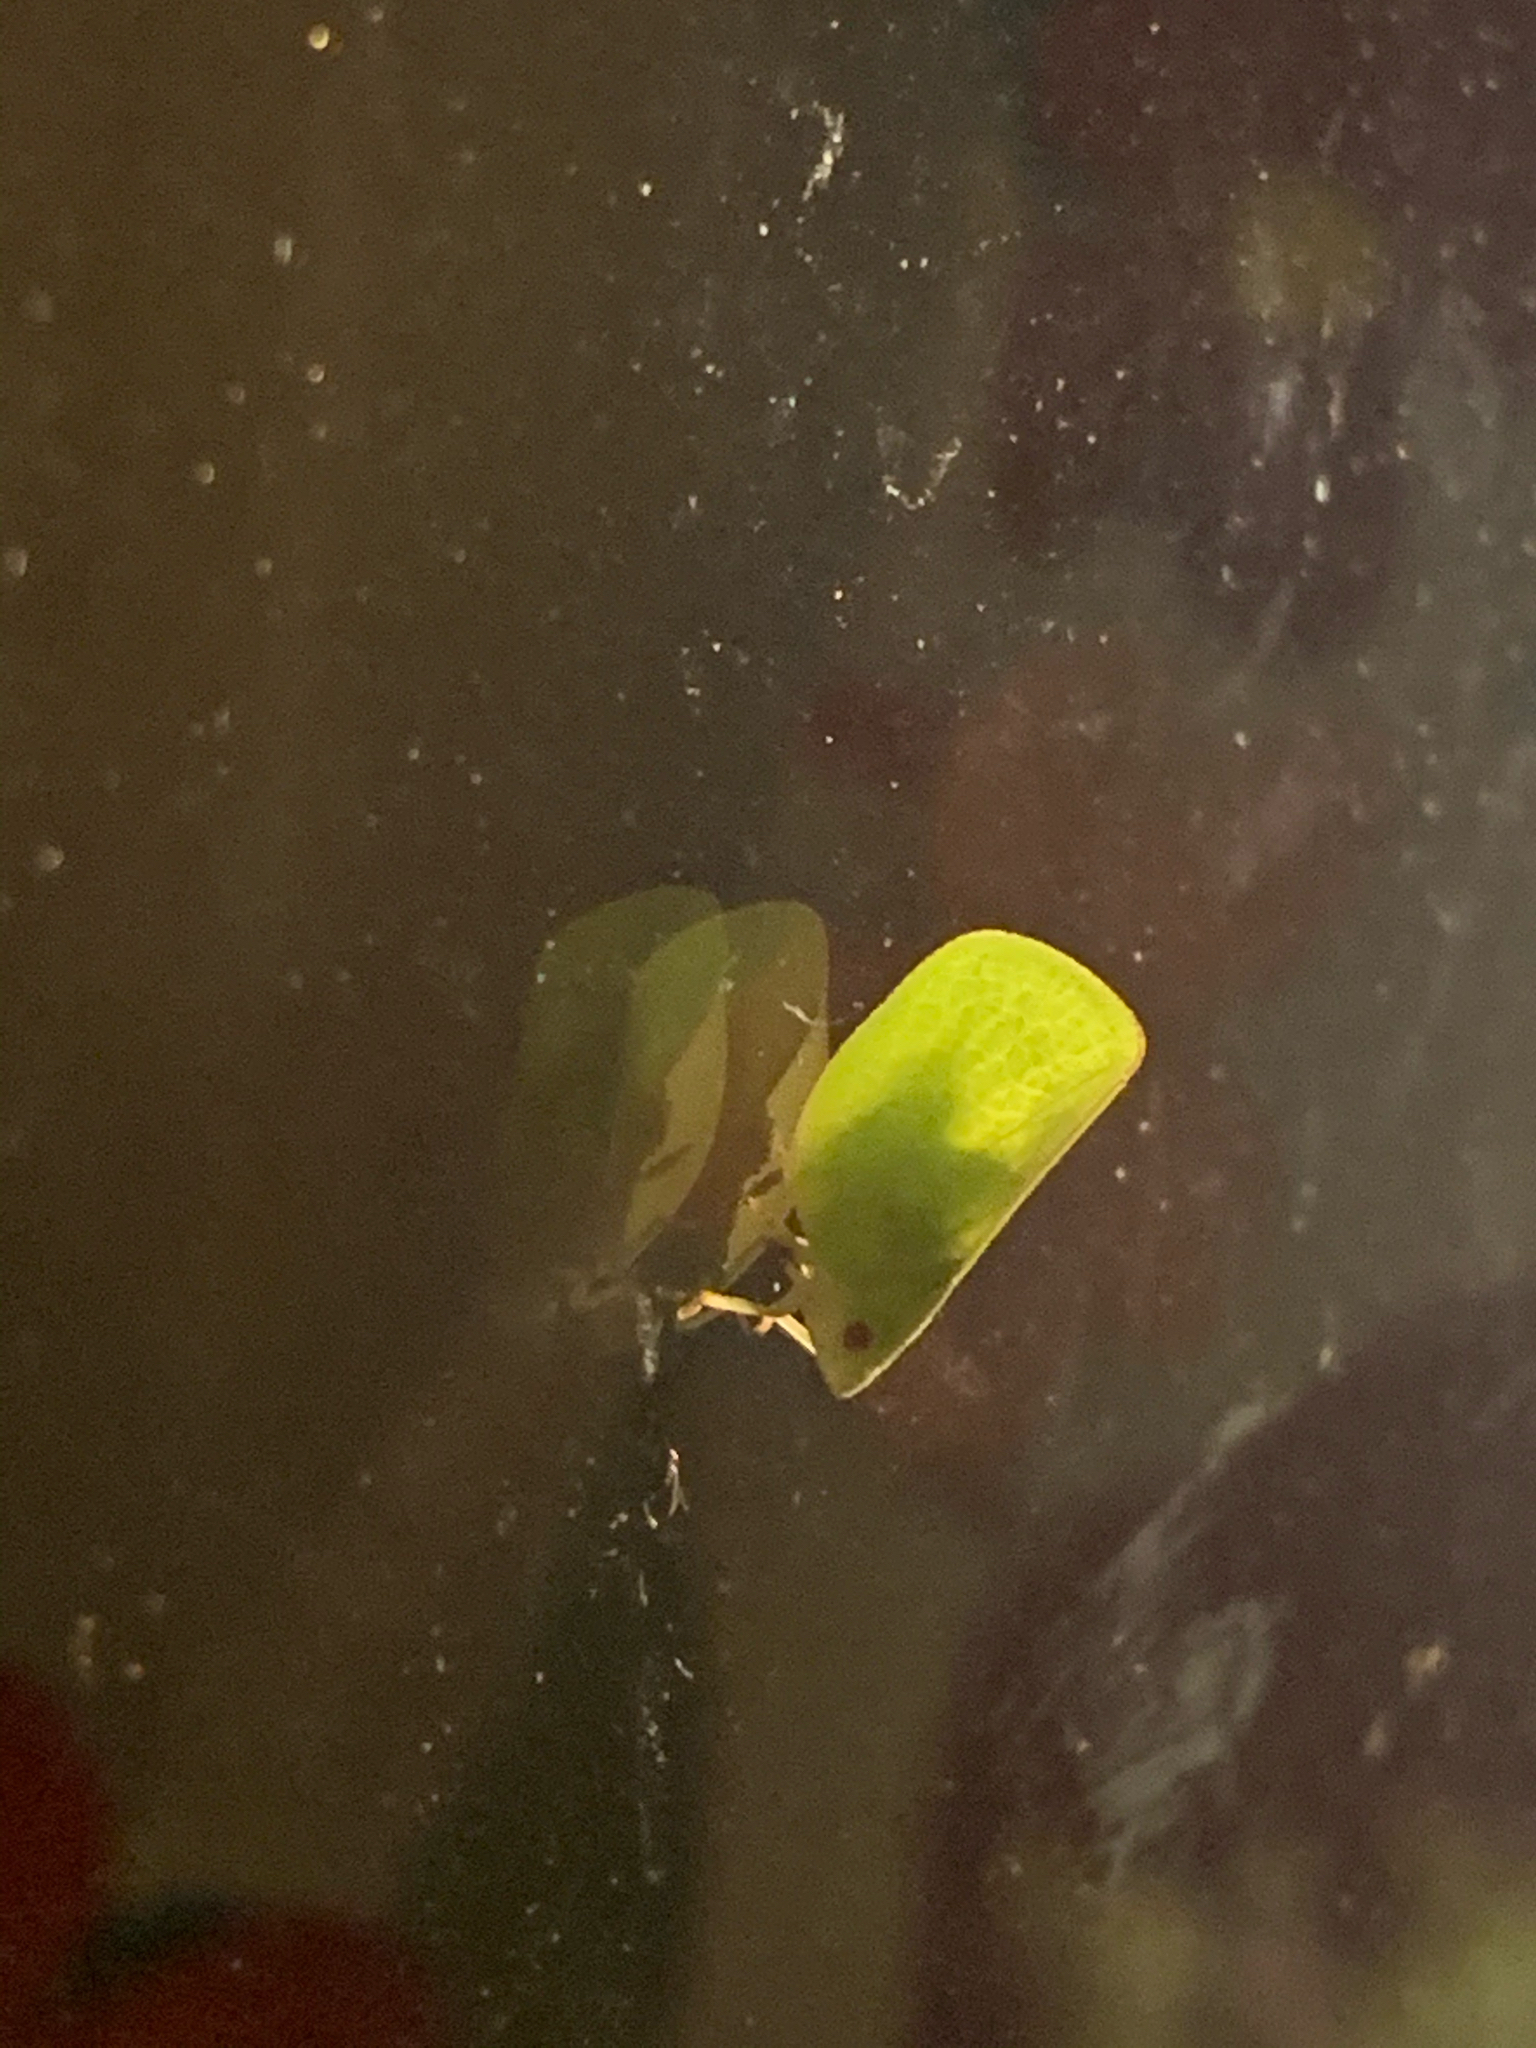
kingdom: Animalia
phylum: Arthropoda
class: Insecta
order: Hemiptera
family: Acanaloniidae
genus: Acanalonia
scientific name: Acanalonia conica
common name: Green cone-headed planthopper
